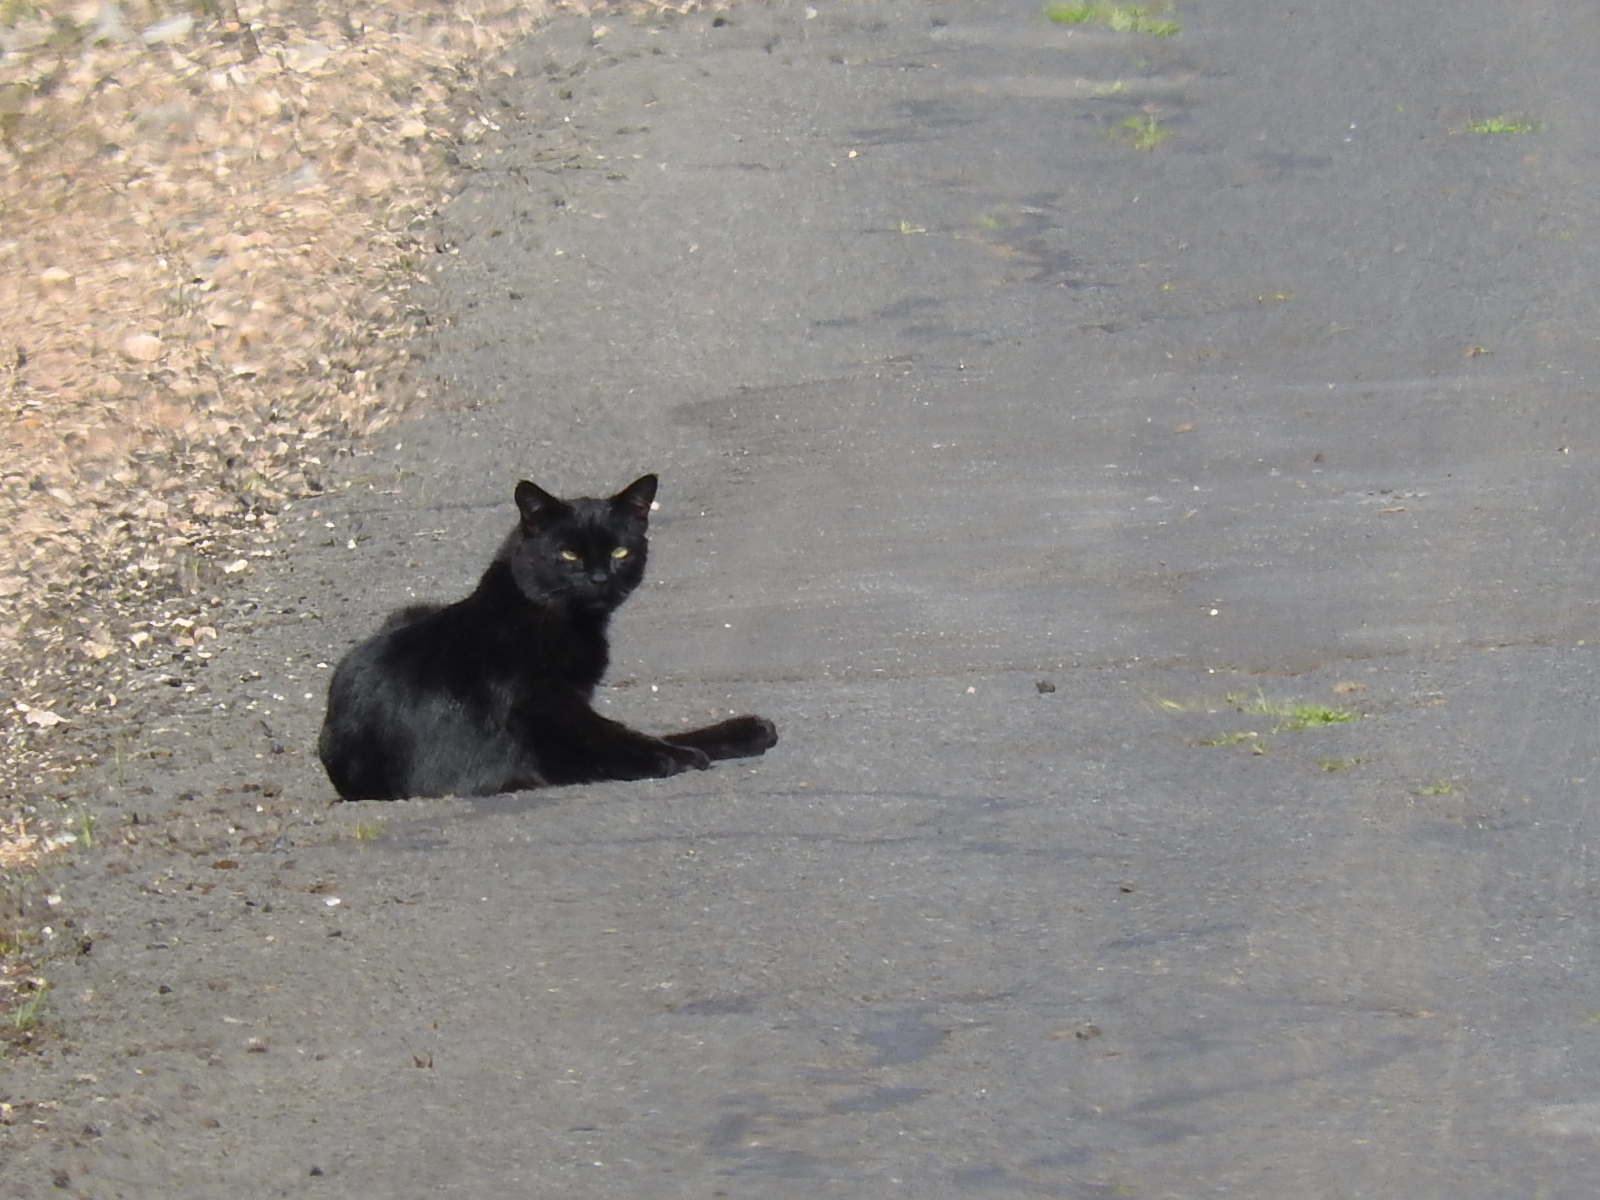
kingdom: Animalia
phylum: Chordata
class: Mammalia
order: Carnivora
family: Felidae
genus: Felis
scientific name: Felis catus
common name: Domestic cat
